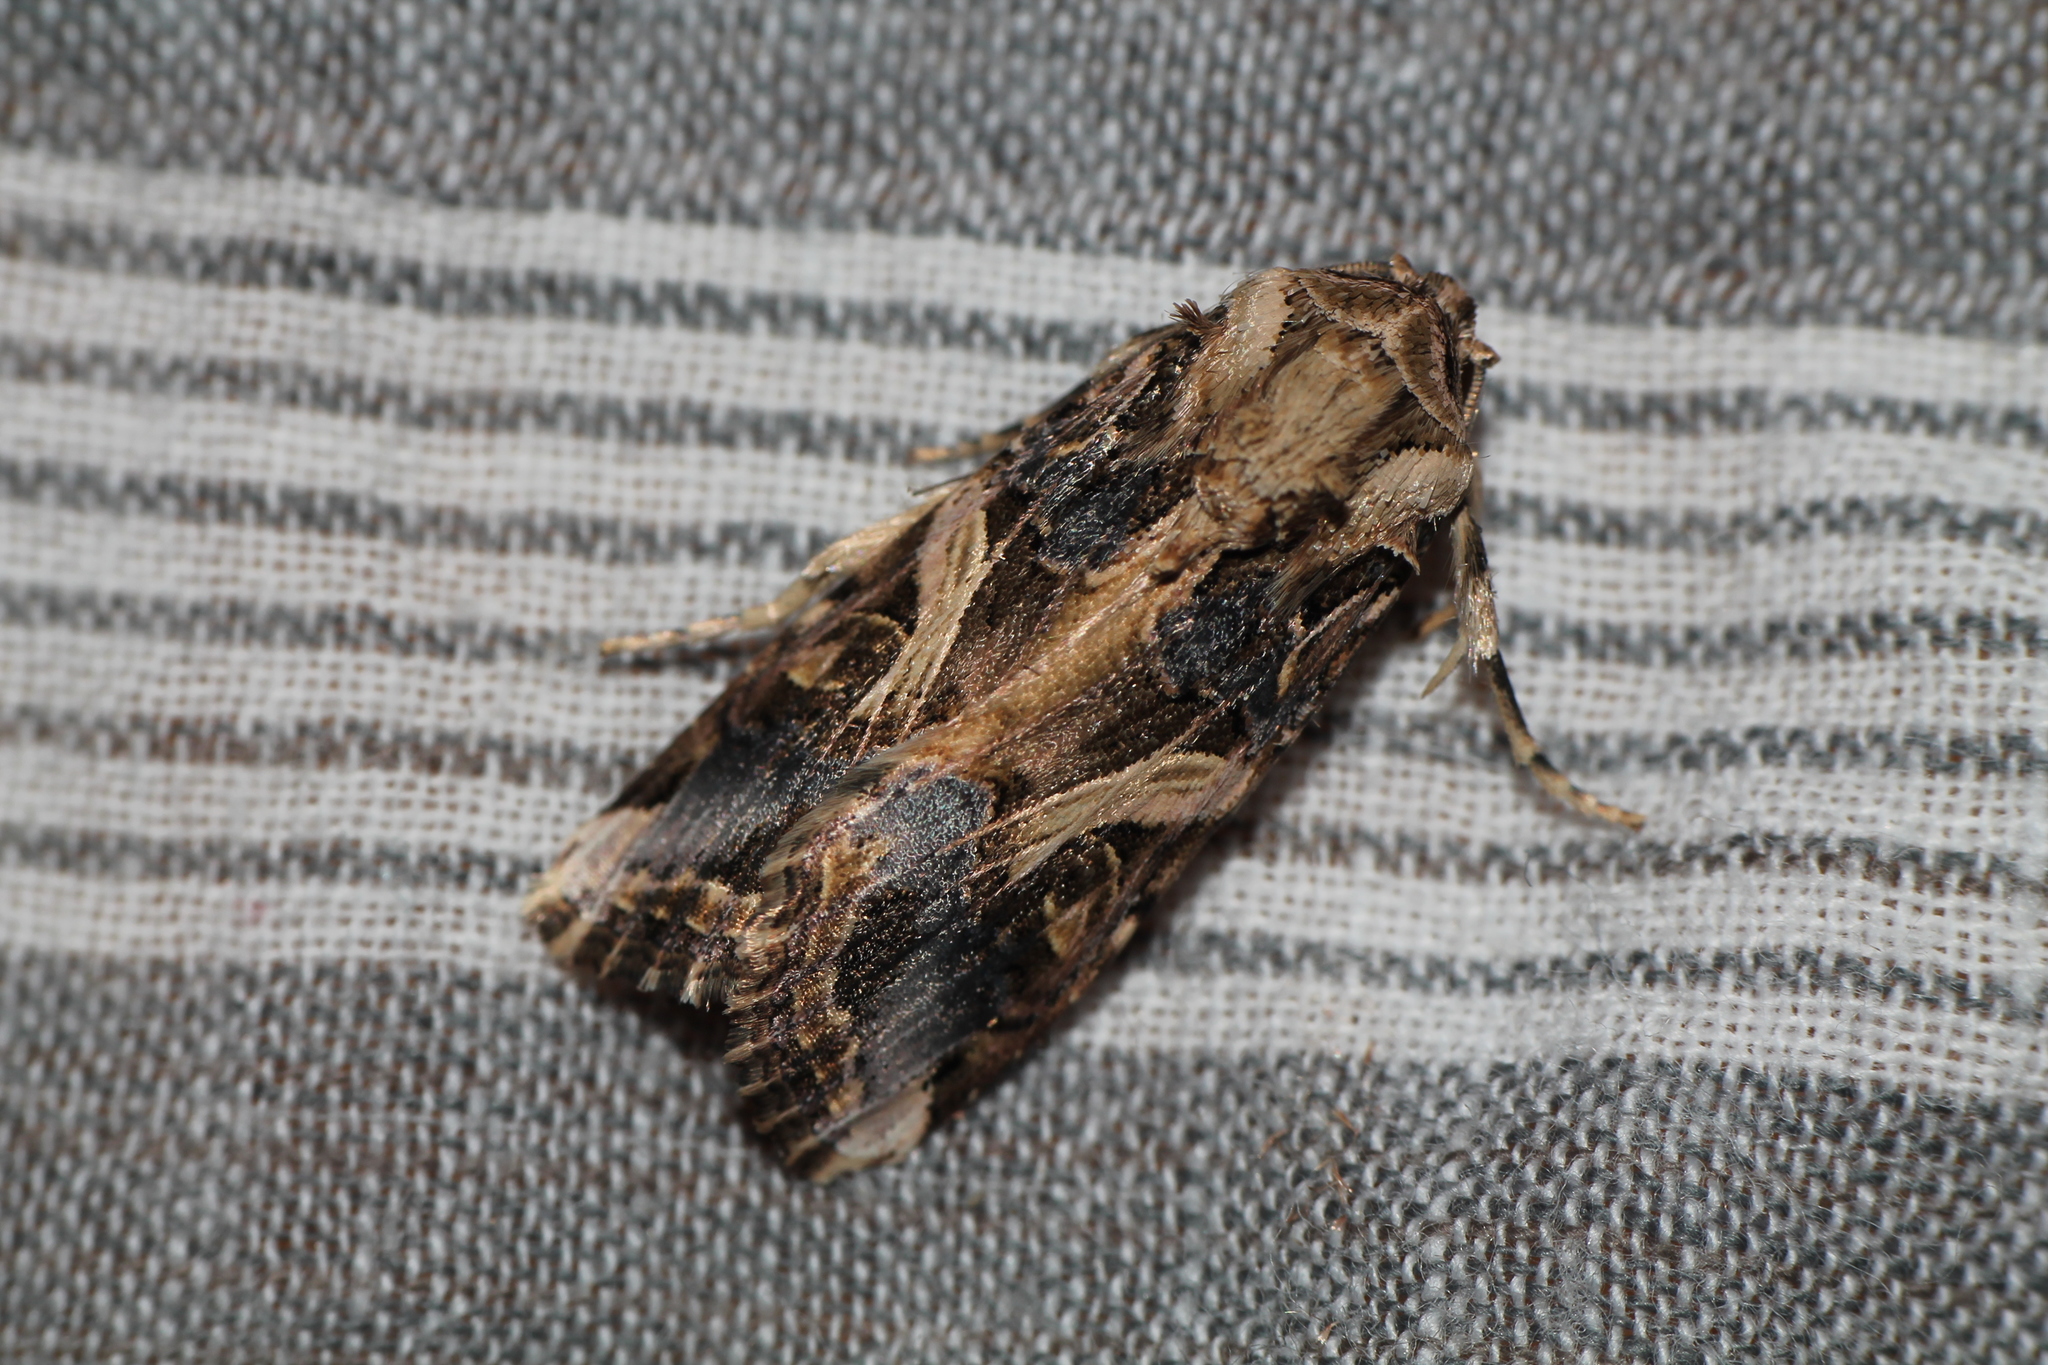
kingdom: Animalia
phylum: Arthropoda
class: Insecta
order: Lepidoptera
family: Noctuidae
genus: Spodoptera
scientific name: Spodoptera litura
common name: Asian cotton leafworm
